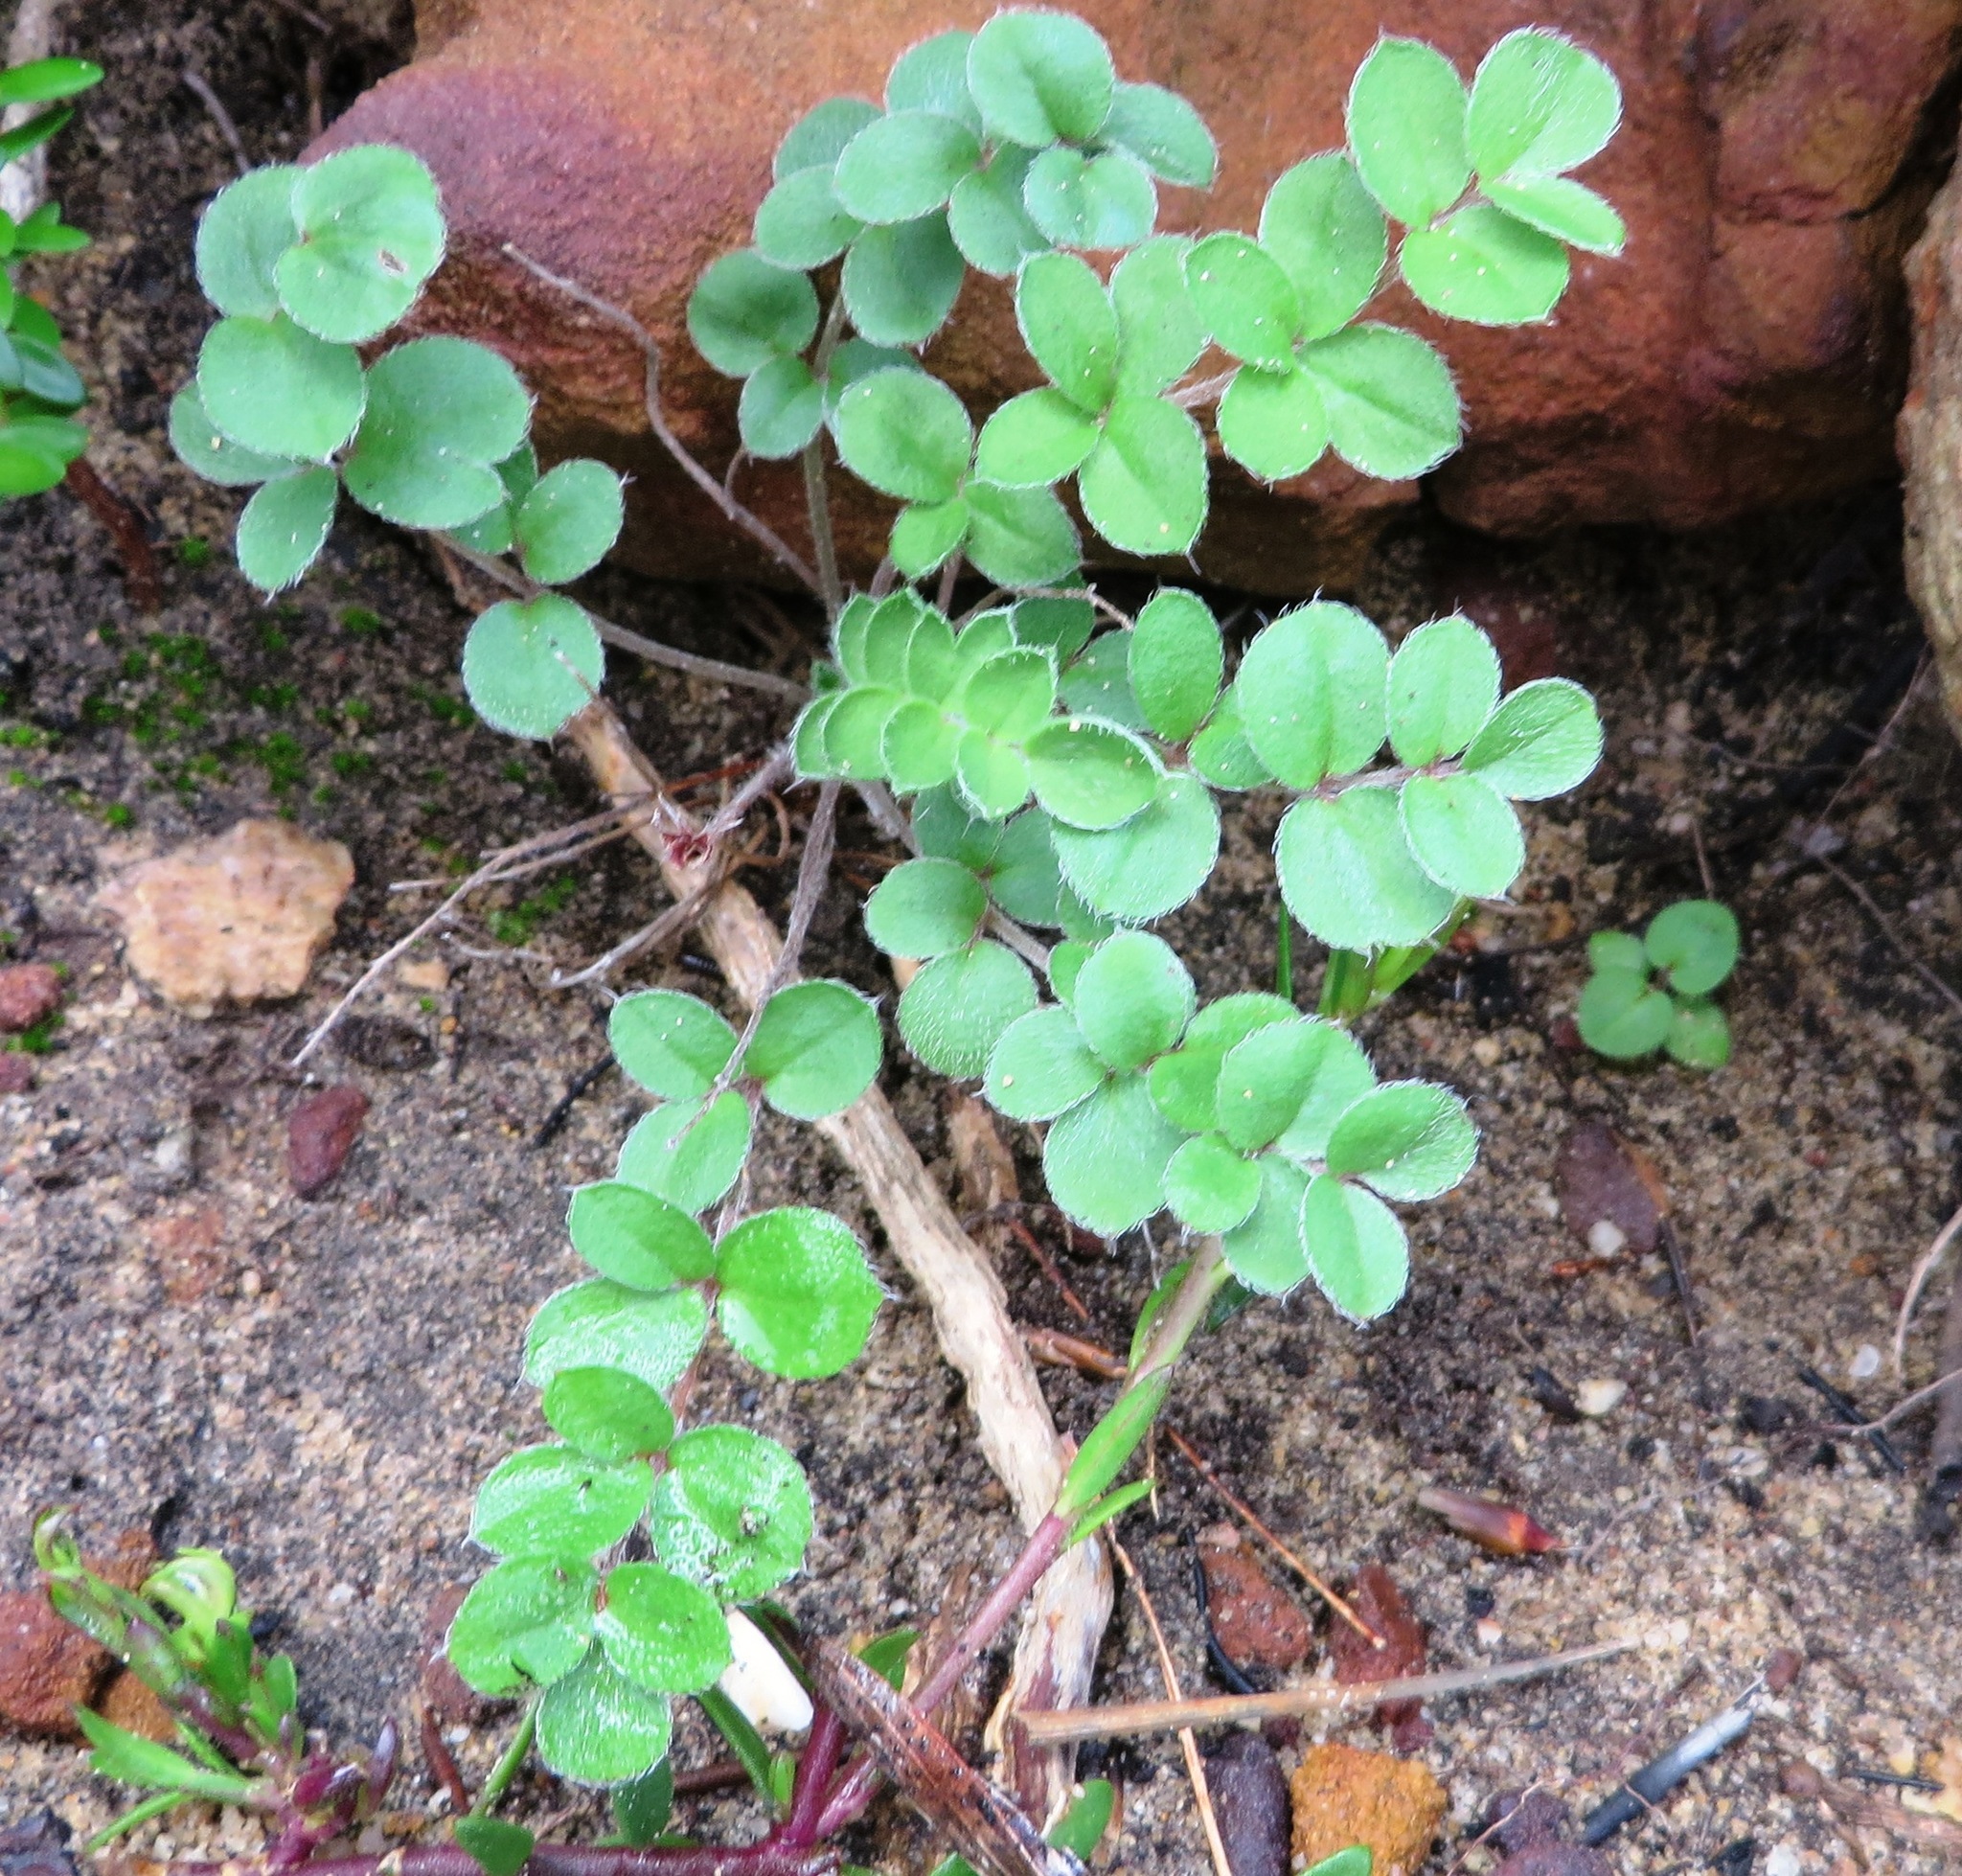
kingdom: Plantae
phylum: Tracheophyta
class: Magnoliopsida
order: Geraniales
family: Geraniaceae
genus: Pelargonium
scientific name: Pelargonium pinnatum
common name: Pinnated pelargonium
